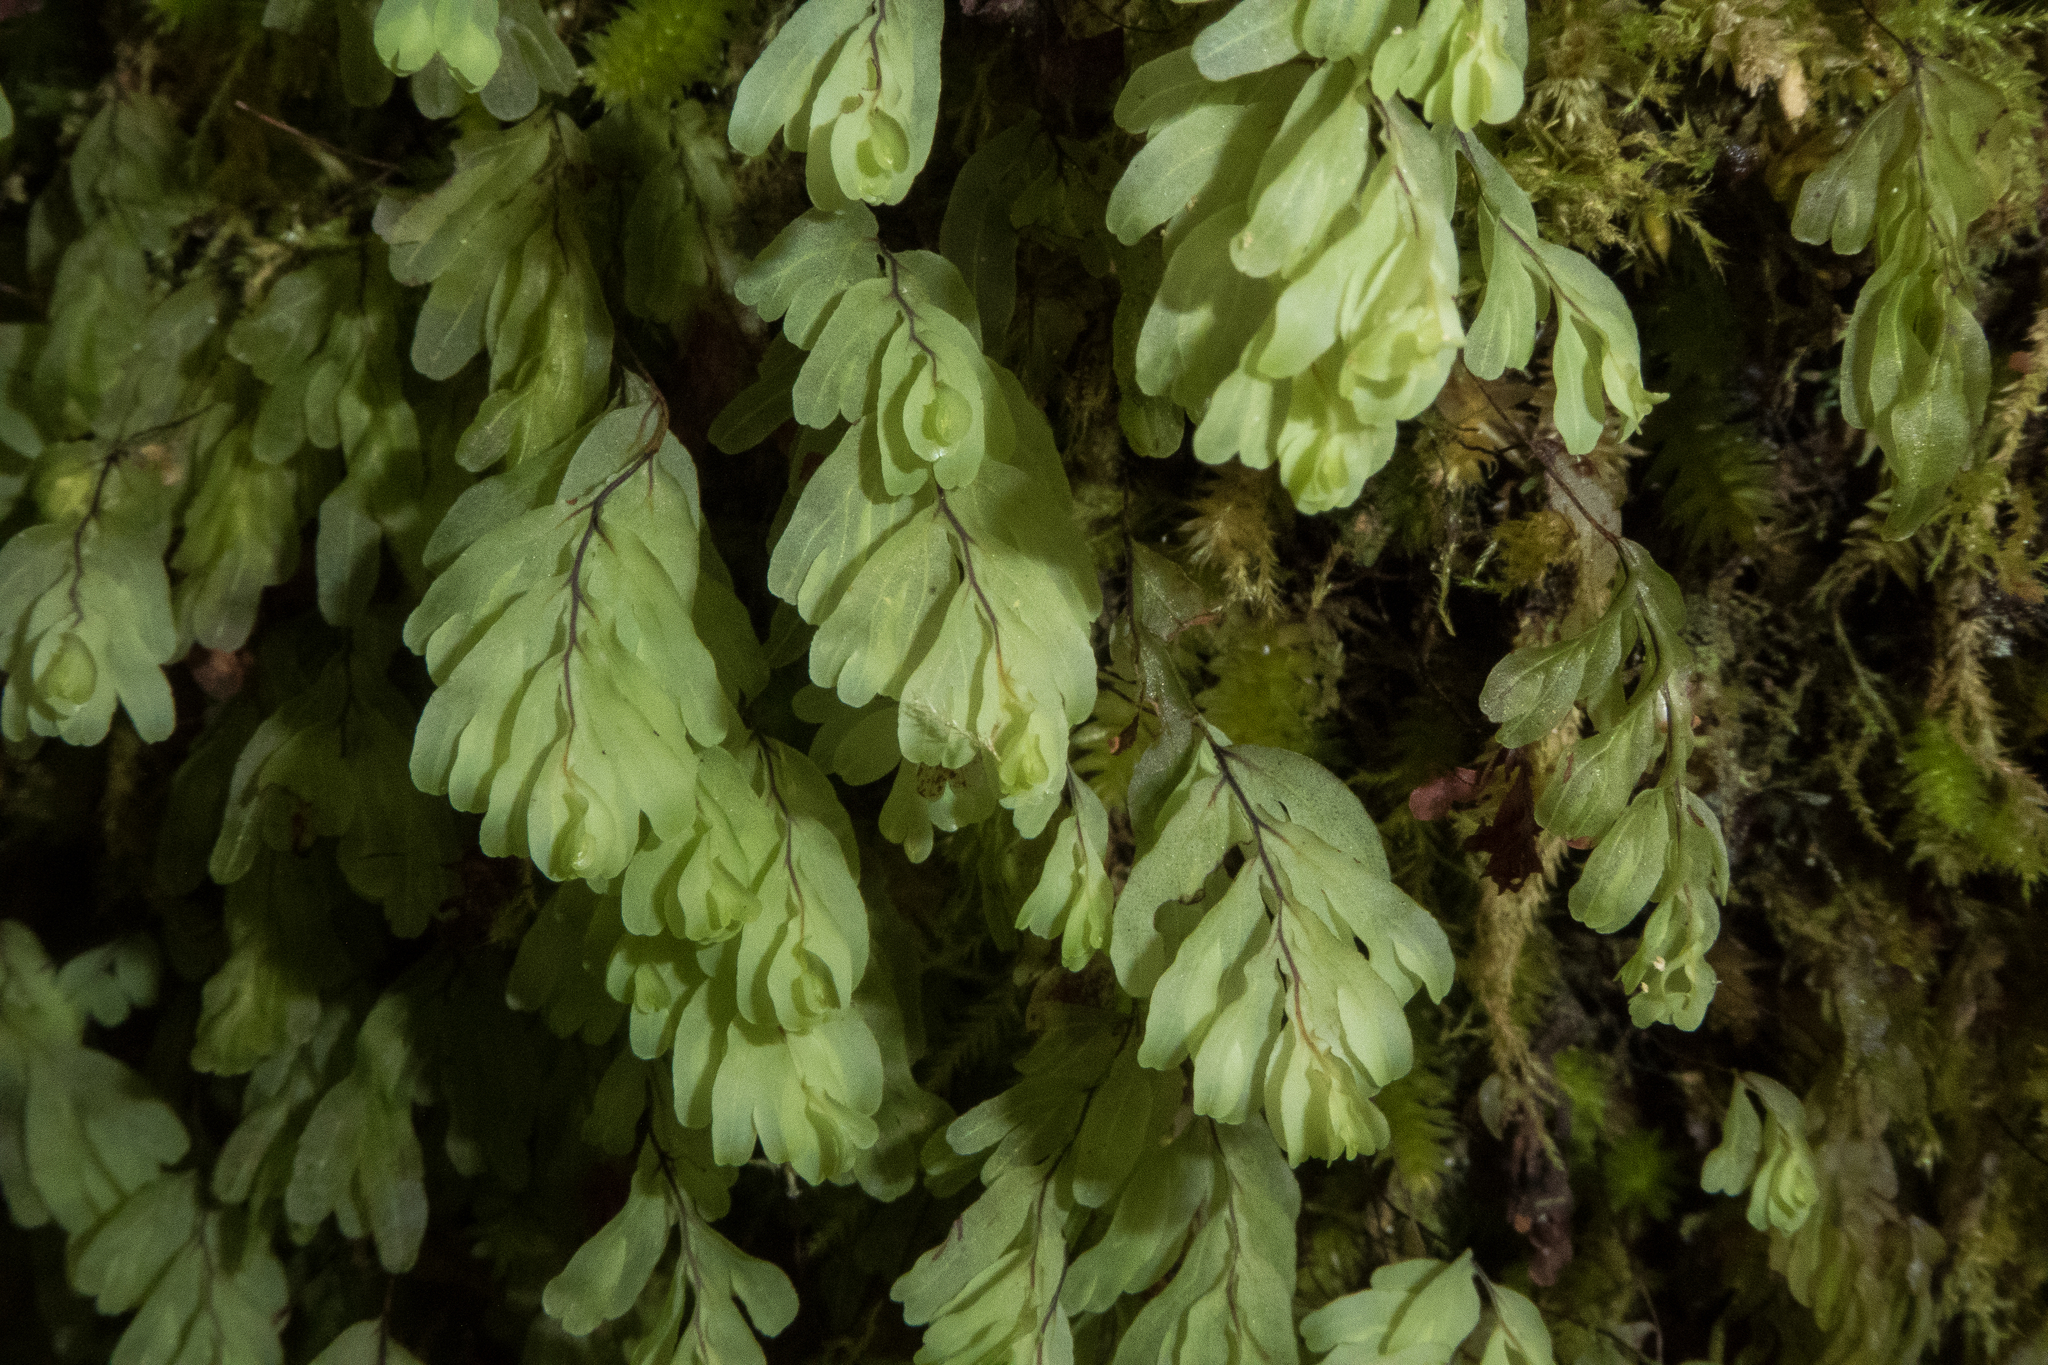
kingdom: Plantae
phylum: Tracheophyta
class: Polypodiopsida
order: Hymenophyllales
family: Hymenophyllaceae
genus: Hymenophyllum
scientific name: Hymenophyllum rarum
